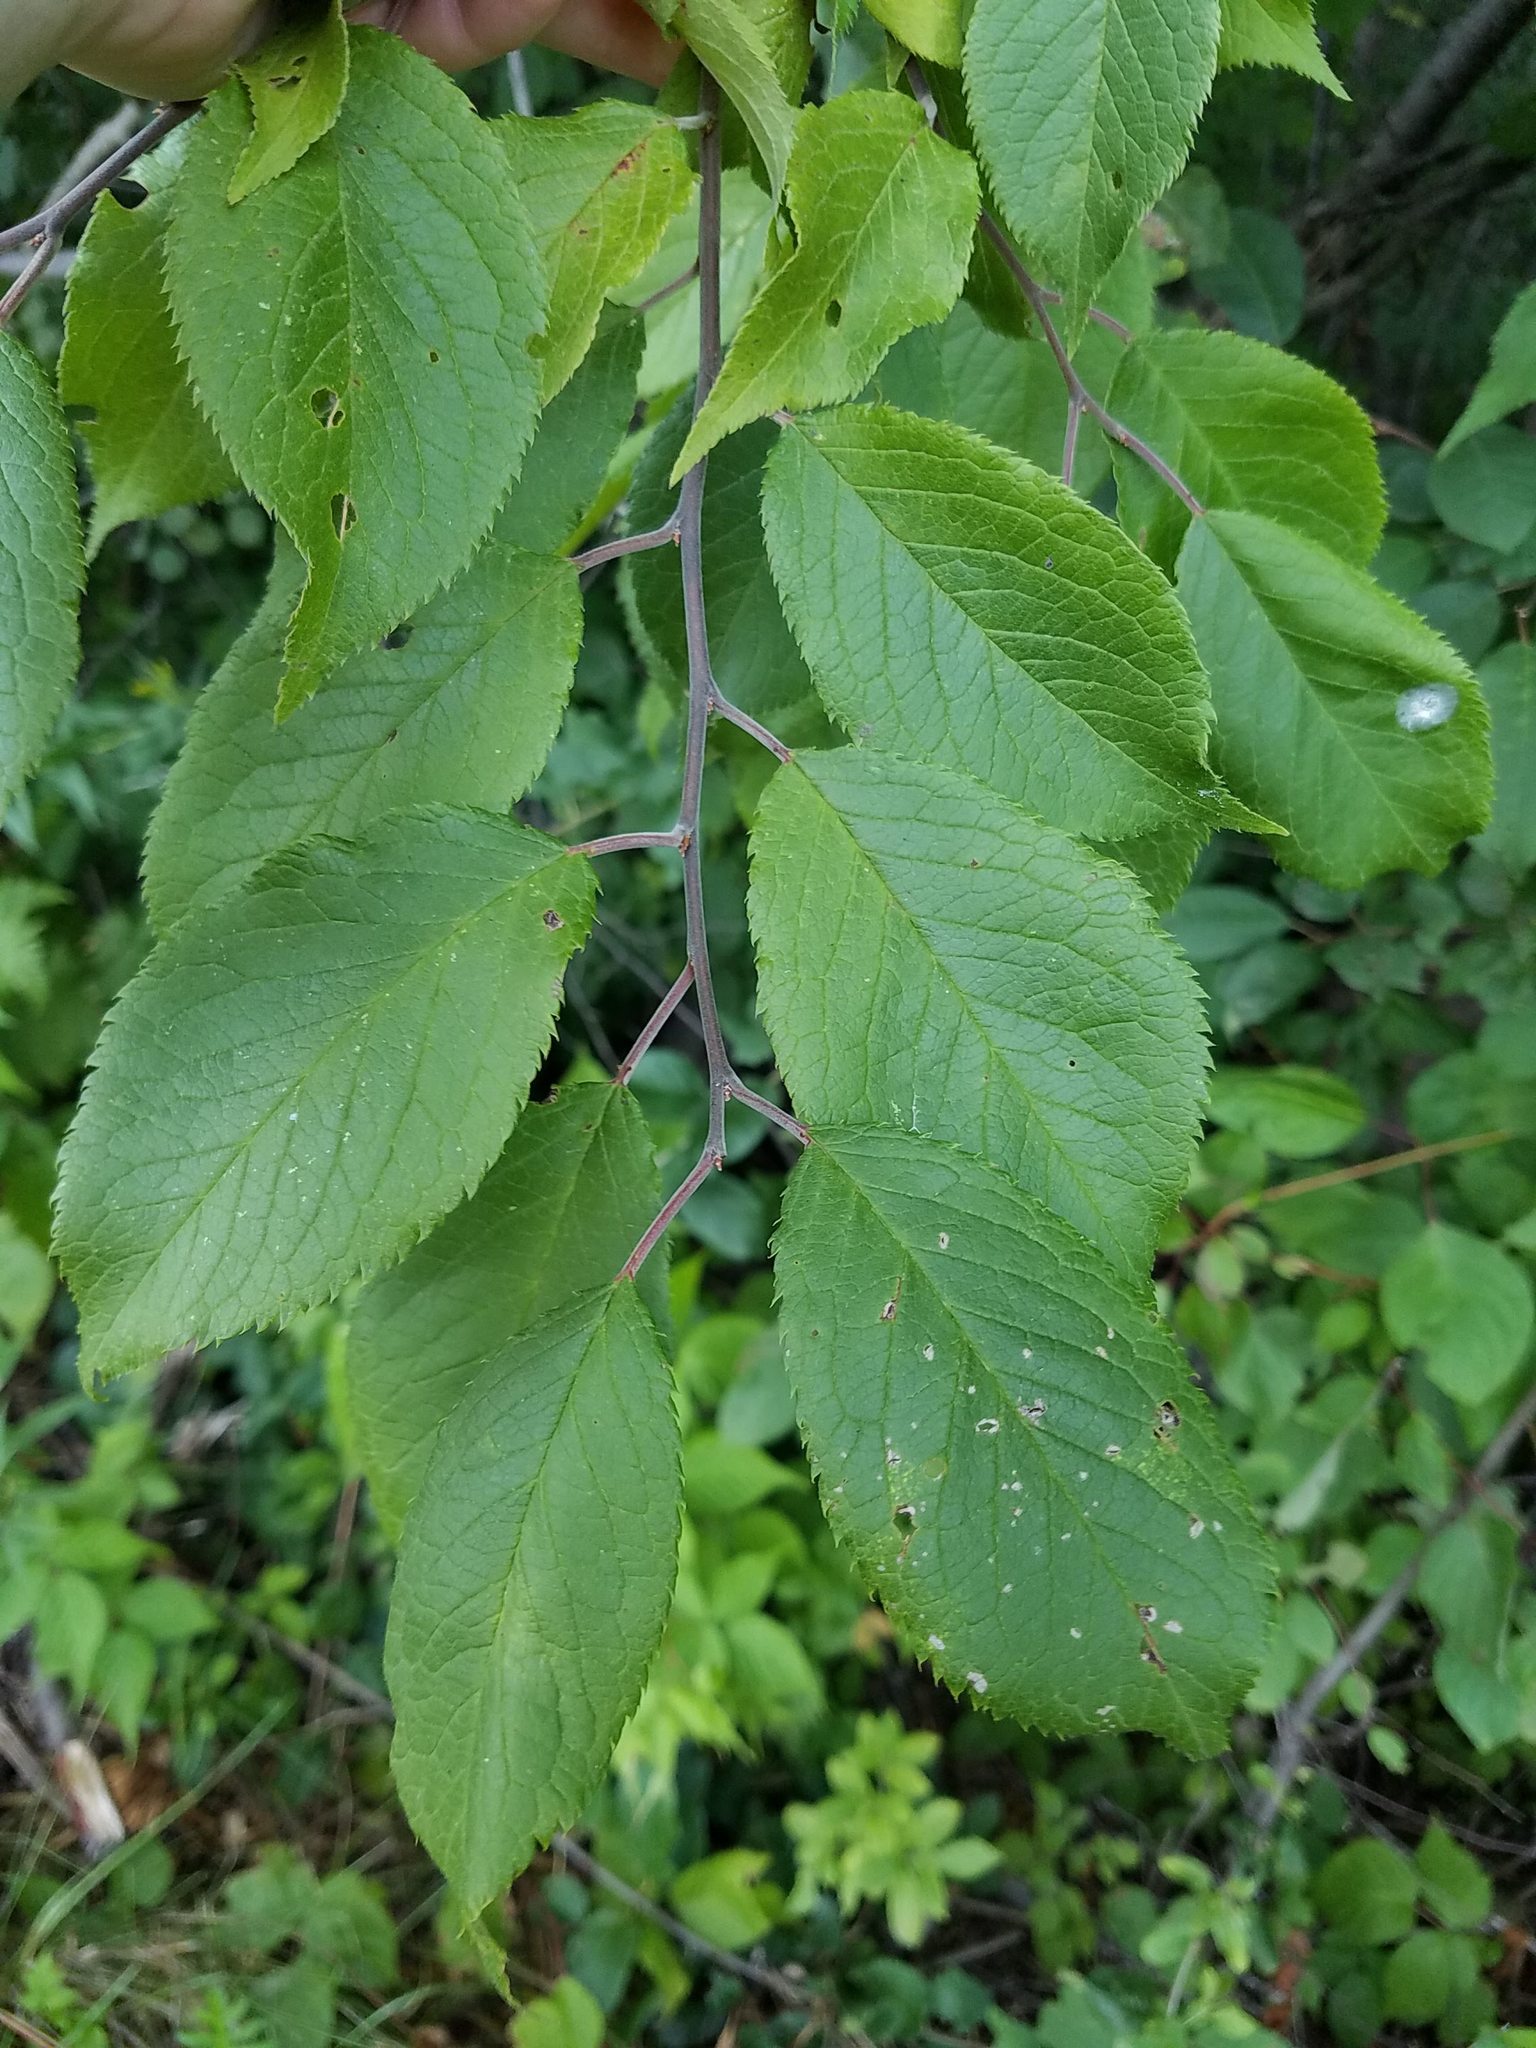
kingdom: Plantae
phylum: Tracheophyta
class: Magnoliopsida
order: Rosales
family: Rosaceae
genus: Prunus
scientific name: Prunus americana
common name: American plum
